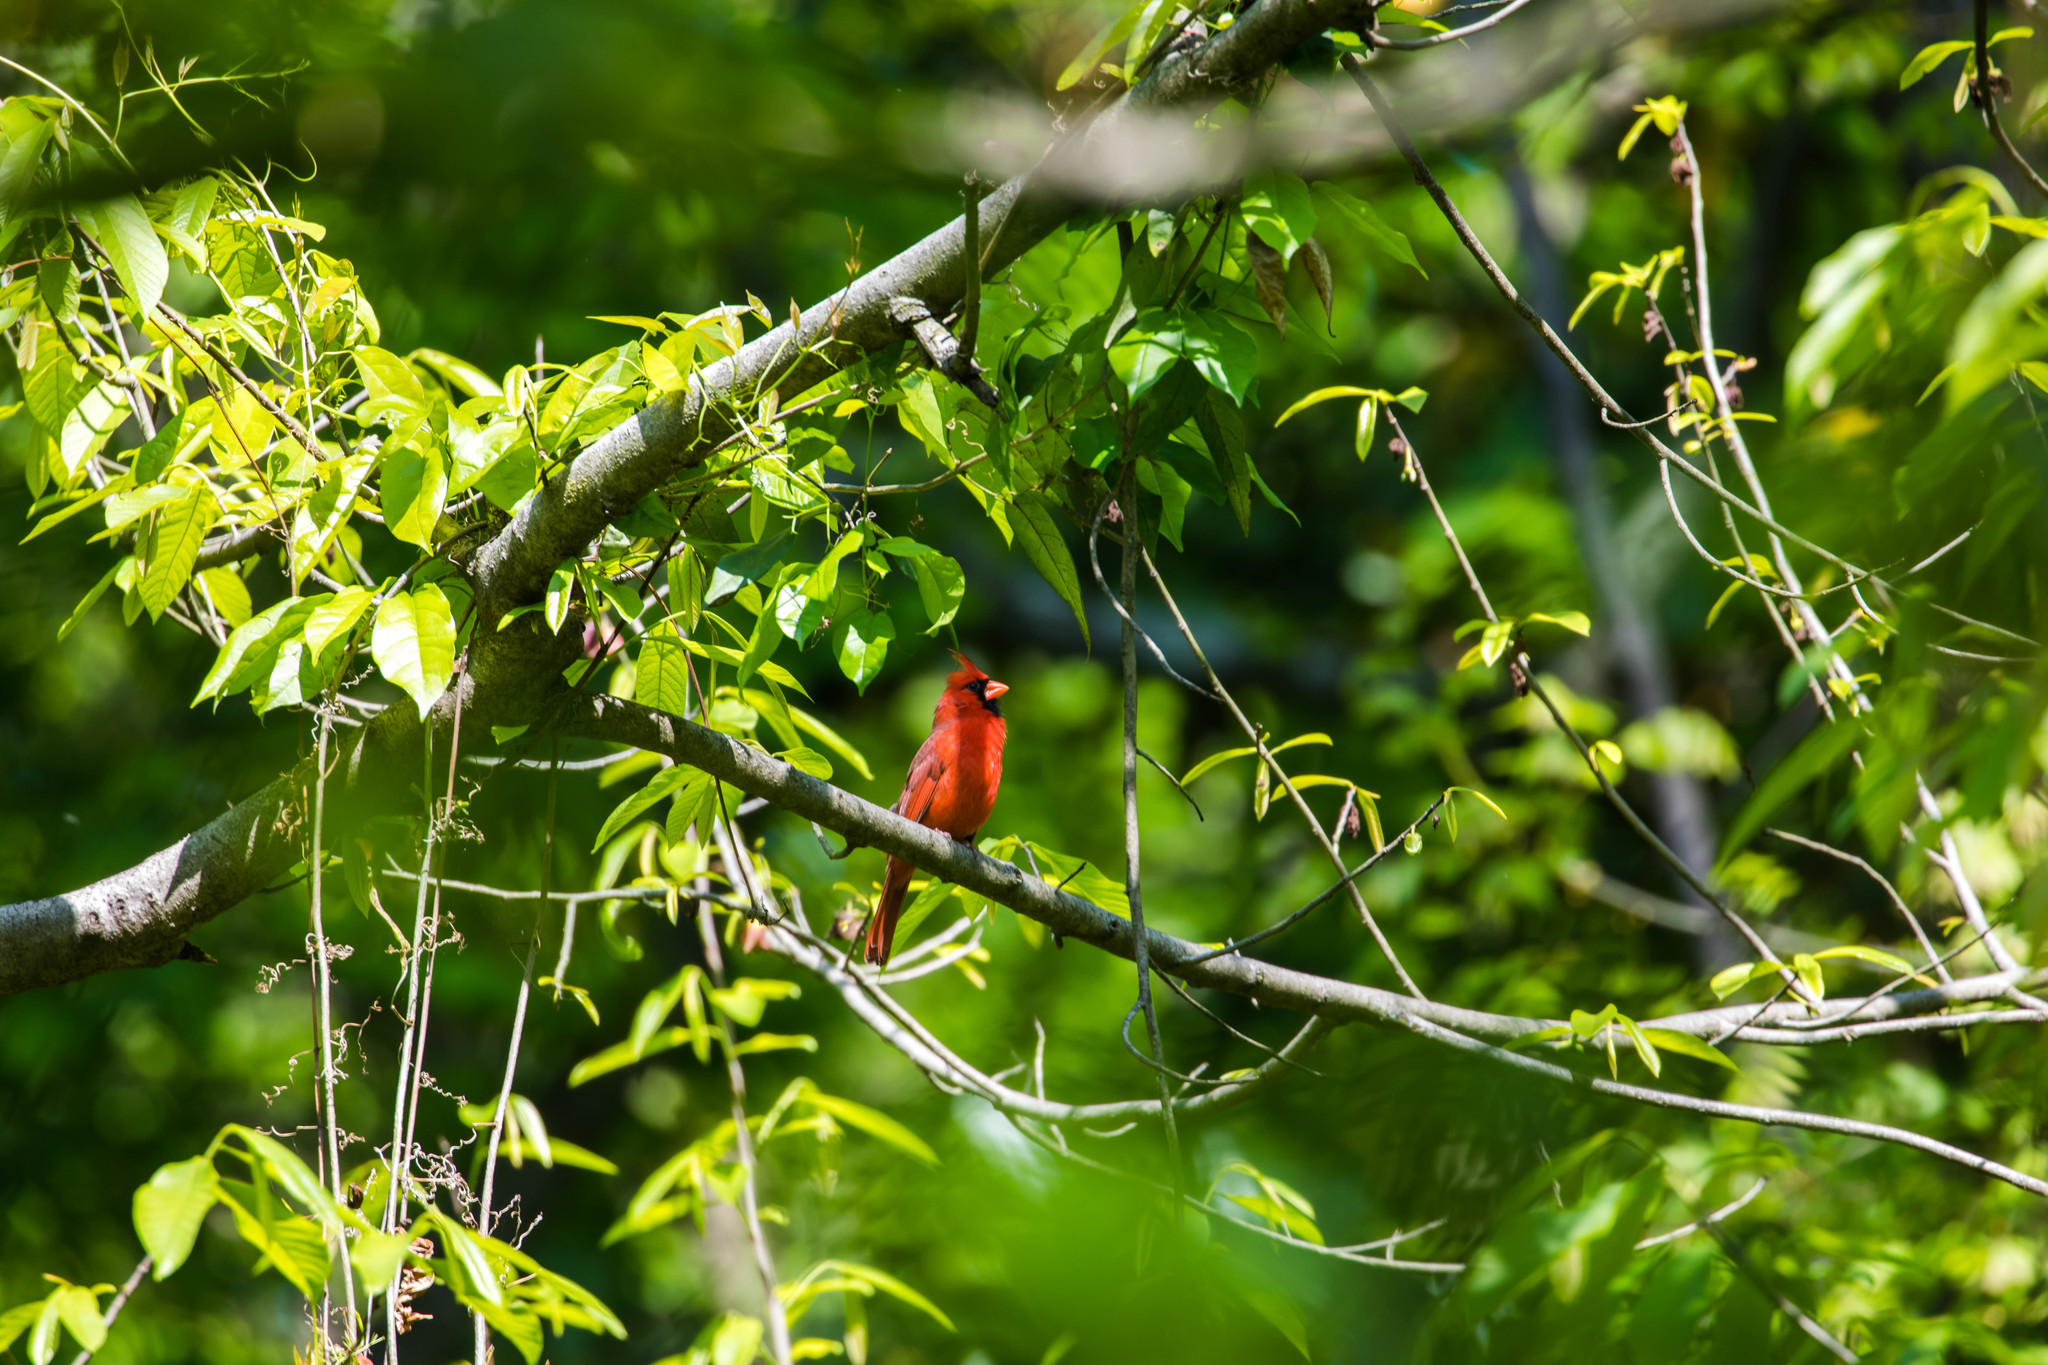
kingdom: Animalia
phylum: Chordata
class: Aves
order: Passeriformes
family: Cardinalidae
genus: Cardinalis
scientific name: Cardinalis cardinalis
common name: Northern cardinal
